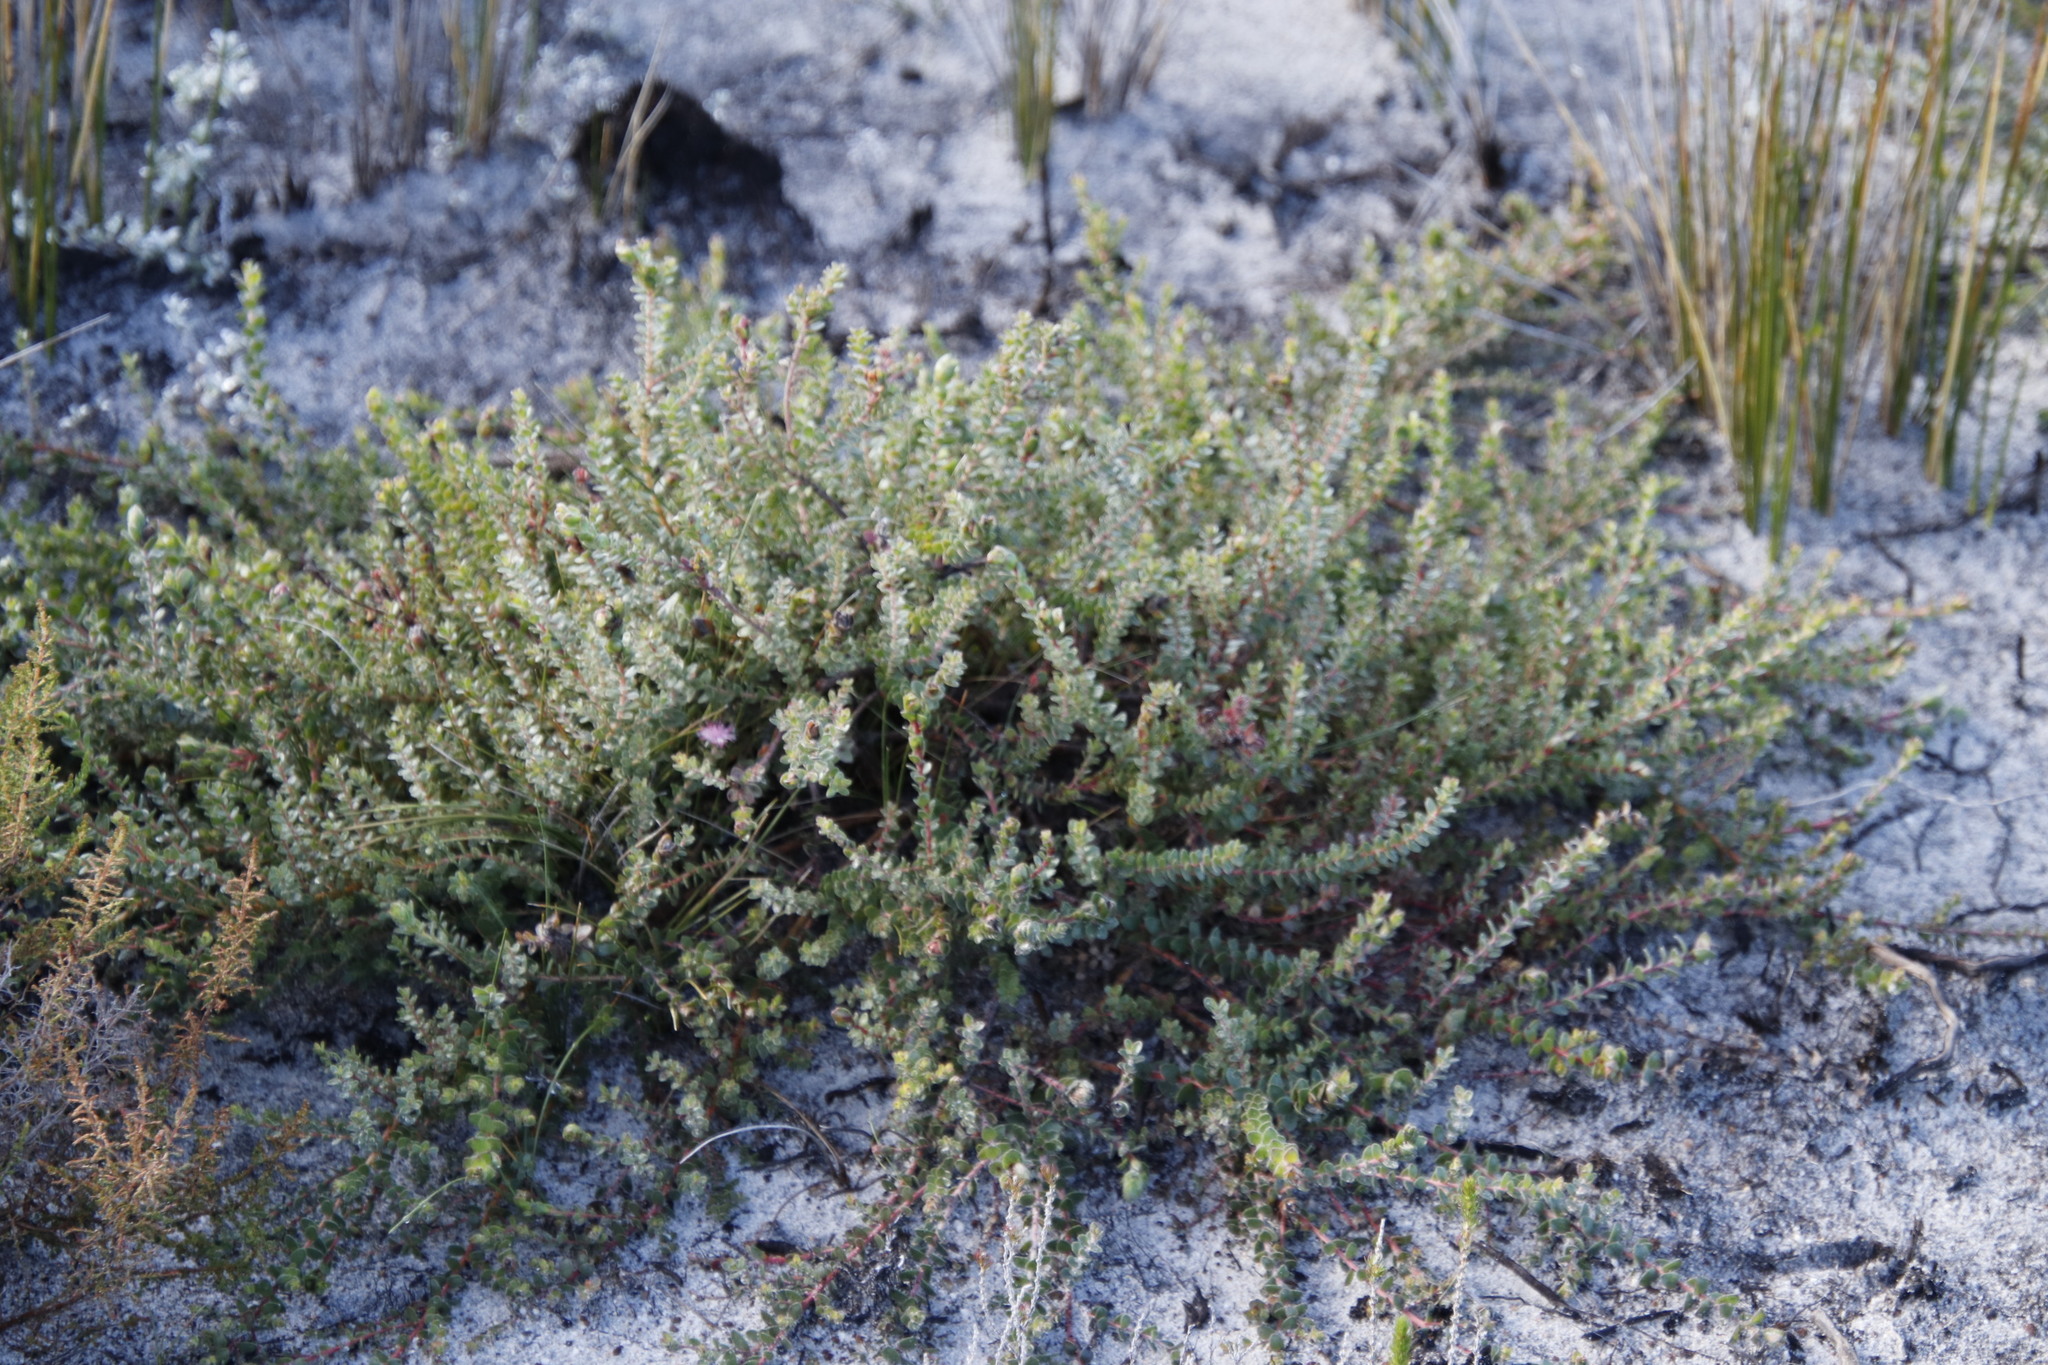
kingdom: Plantae
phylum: Tracheophyta
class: Magnoliopsida
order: Proteales
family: Proteaceae
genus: Diastella
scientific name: Diastella divaricata
